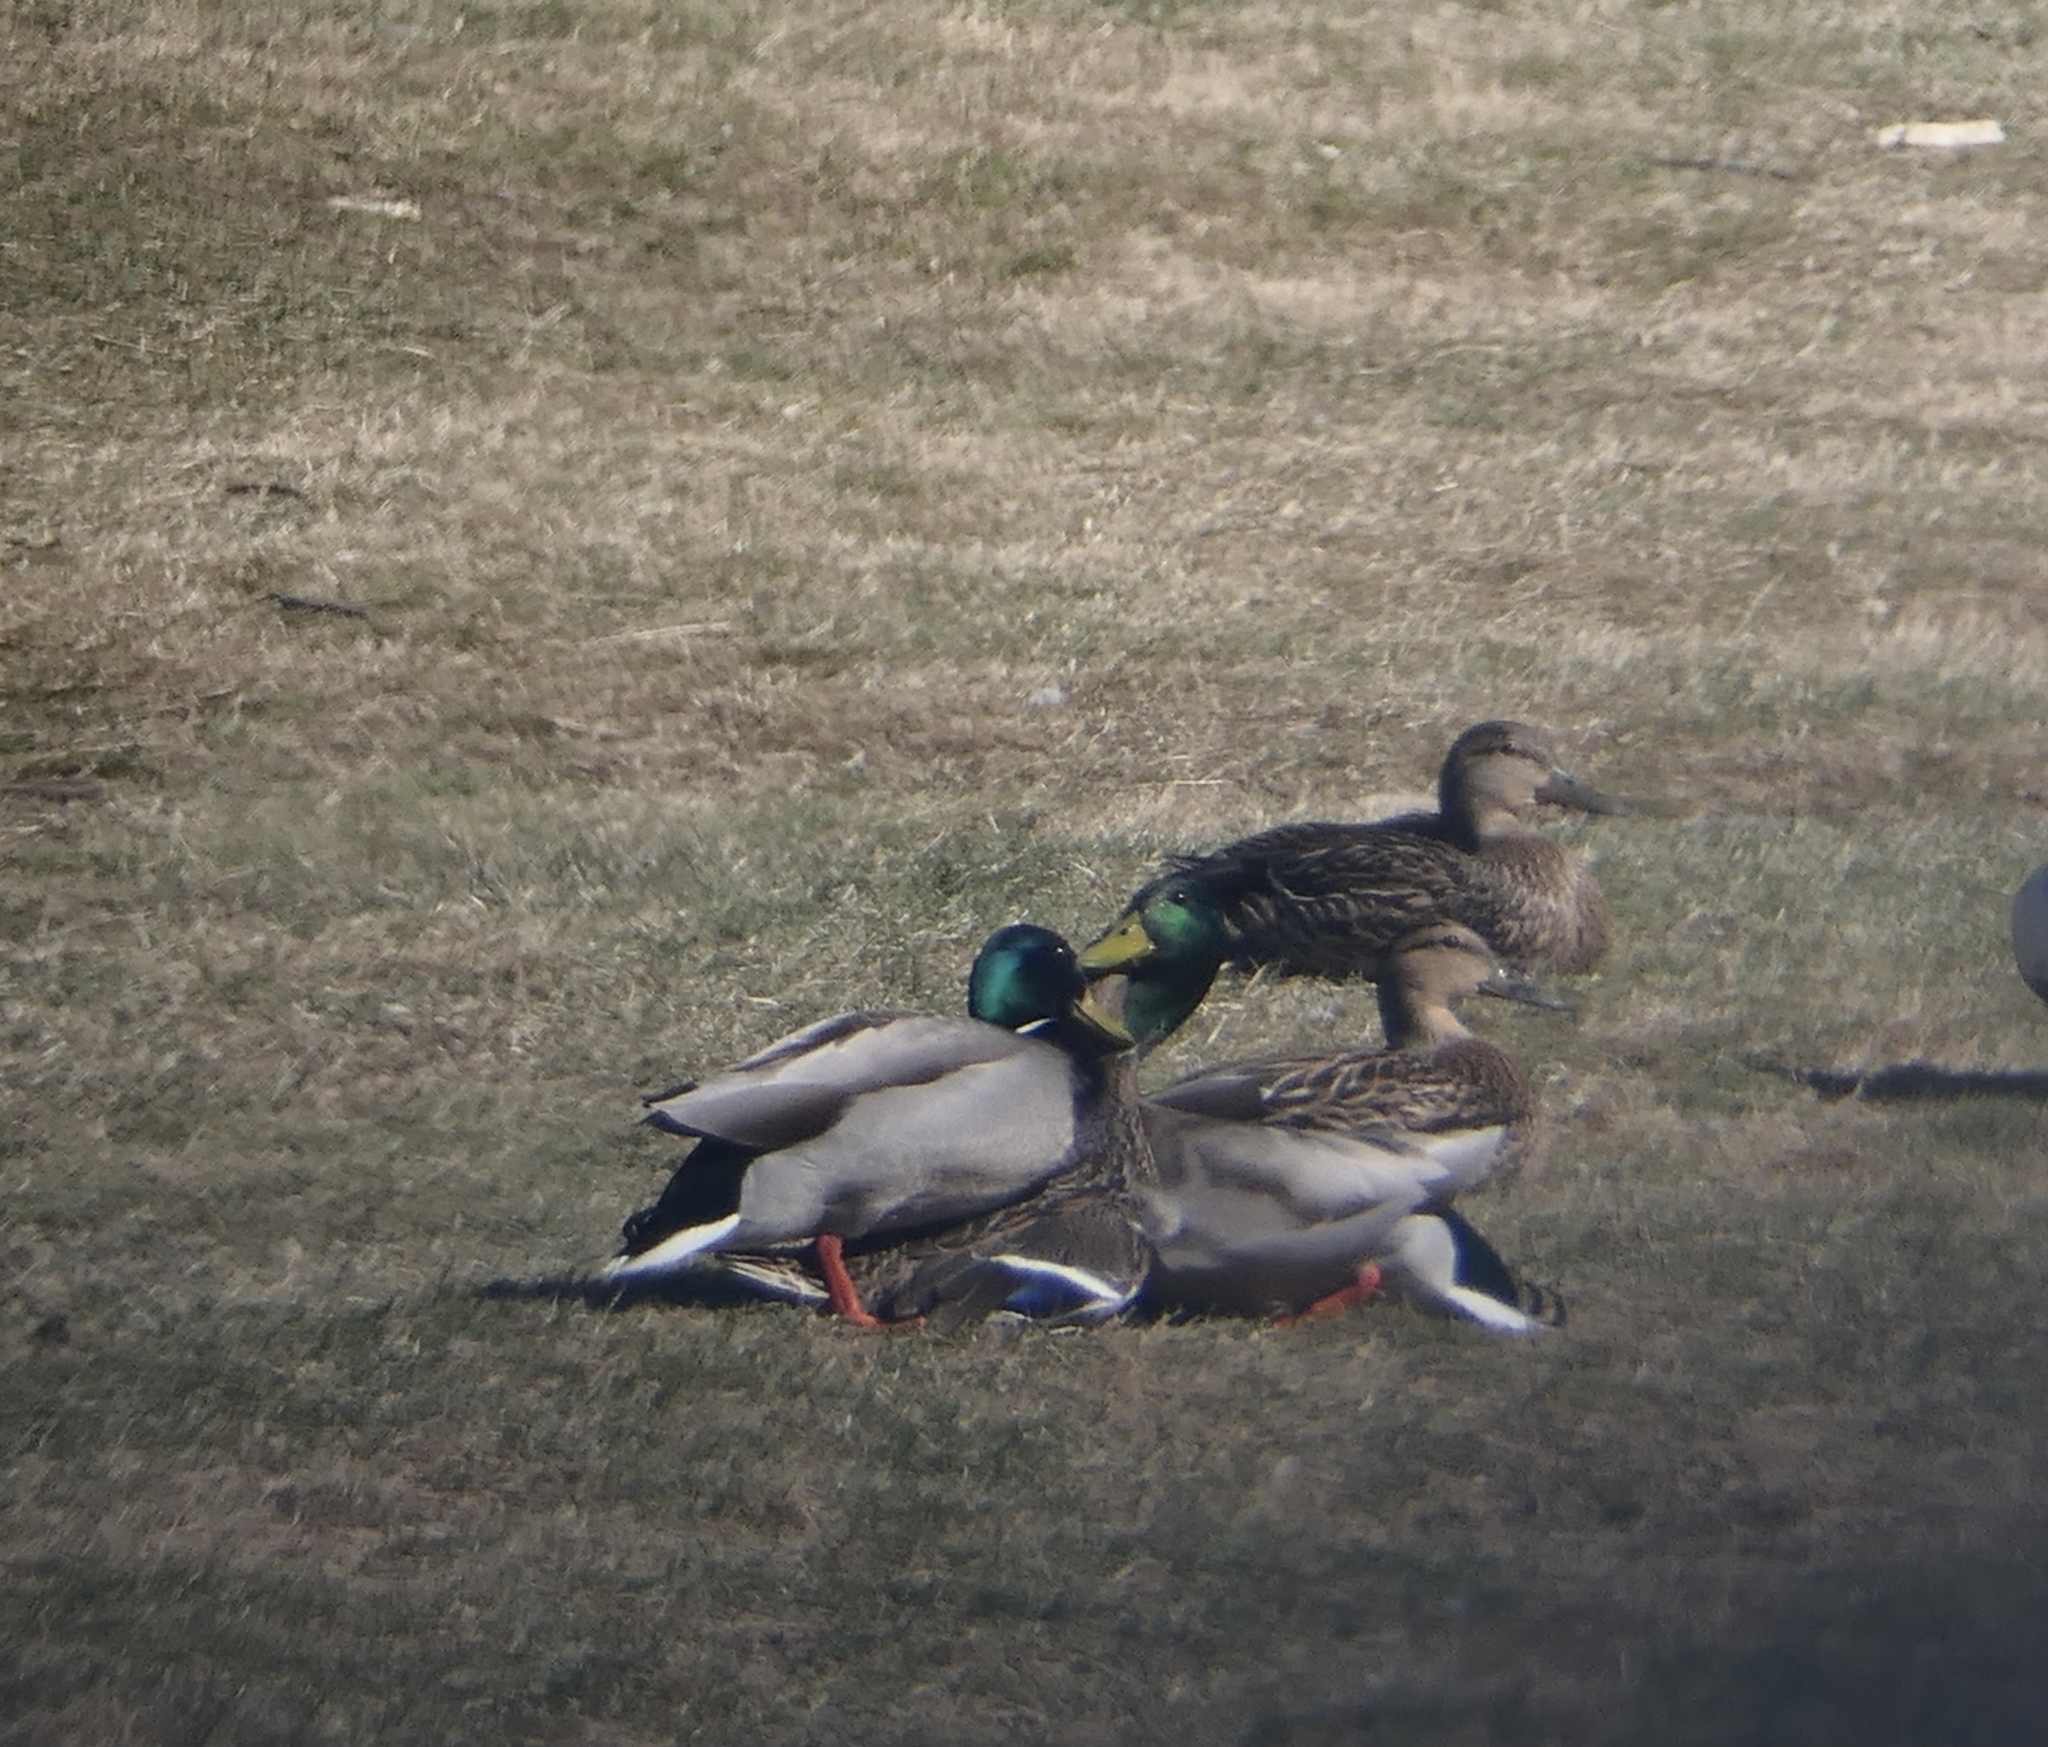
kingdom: Animalia
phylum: Chordata
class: Aves
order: Anseriformes
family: Anatidae
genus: Anas
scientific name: Anas platyrhynchos
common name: Mallard
